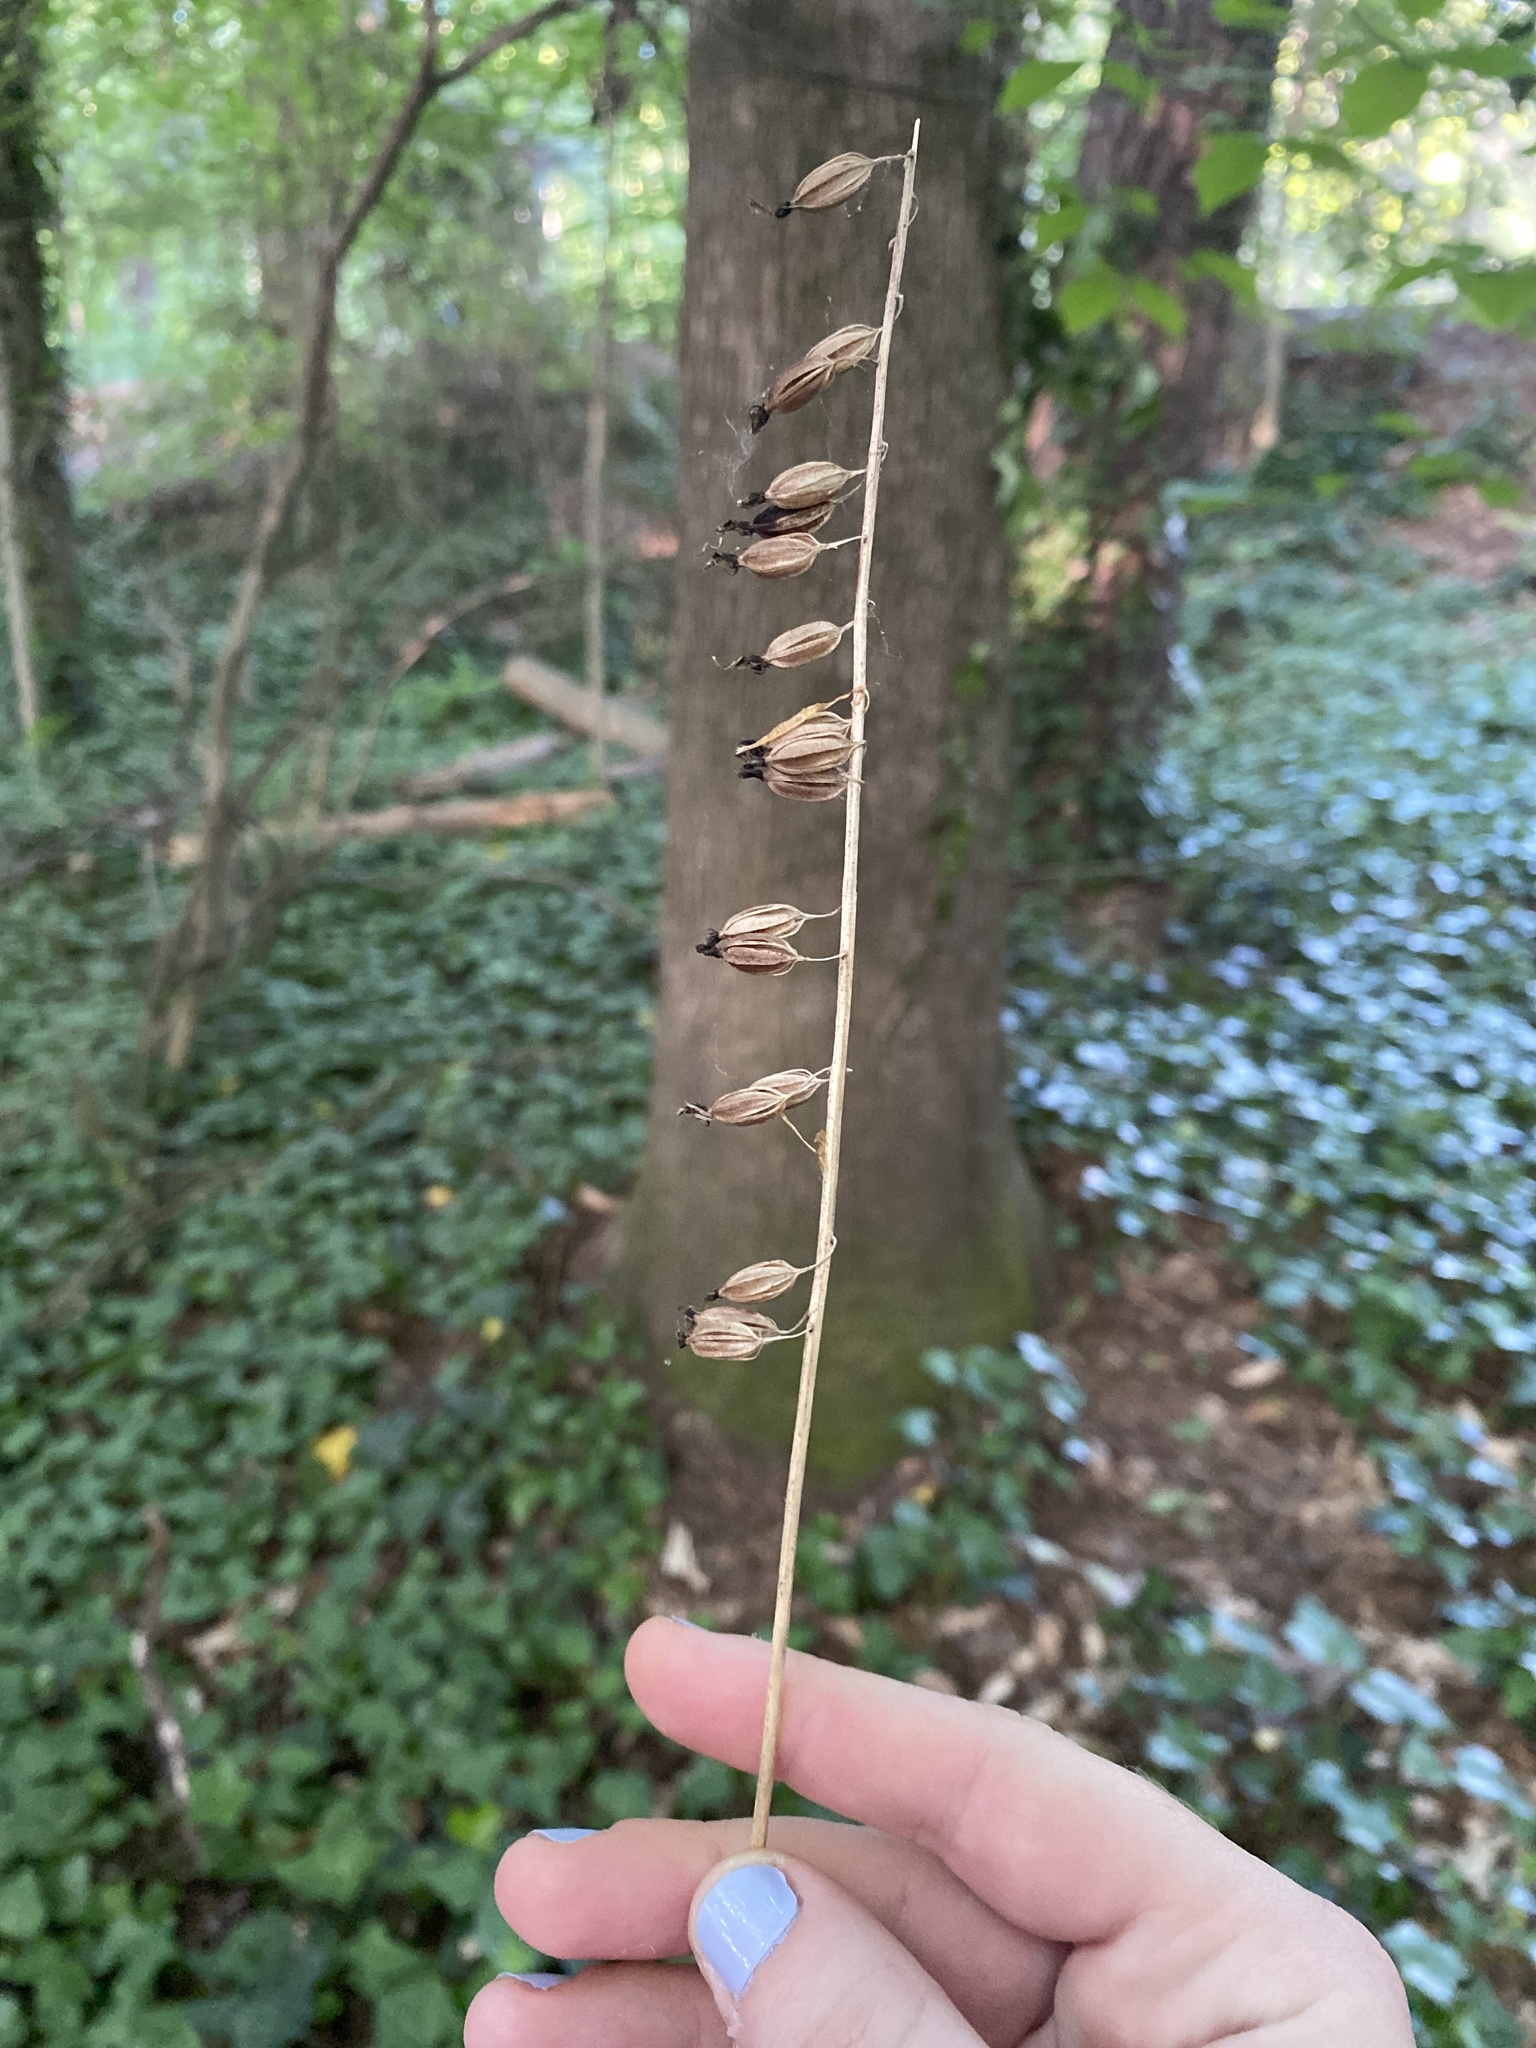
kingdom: Plantae
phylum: Tracheophyta
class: Liliopsida
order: Asparagales
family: Orchidaceae
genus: Tipularia
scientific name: Tipularia discolor
